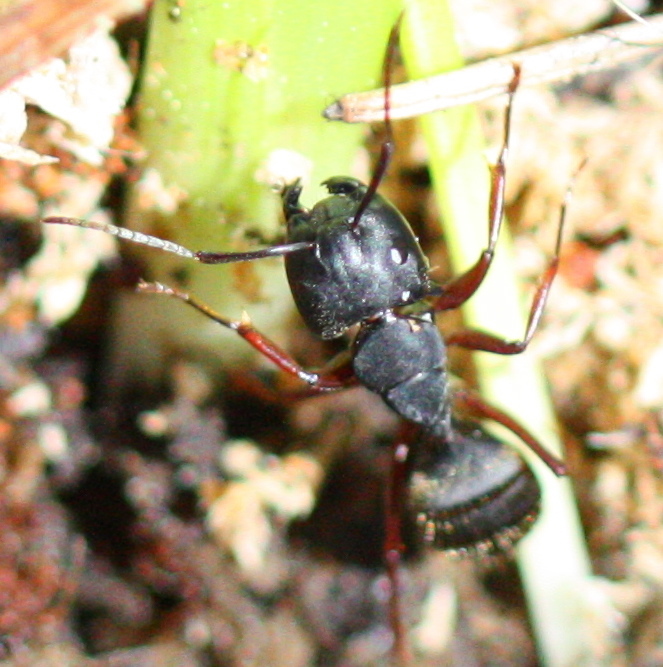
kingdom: Animalia
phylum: Arthropoda
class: Insecta
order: Hymenoptera
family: Formicidae
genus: Camponotus
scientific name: Camponotus modoc
